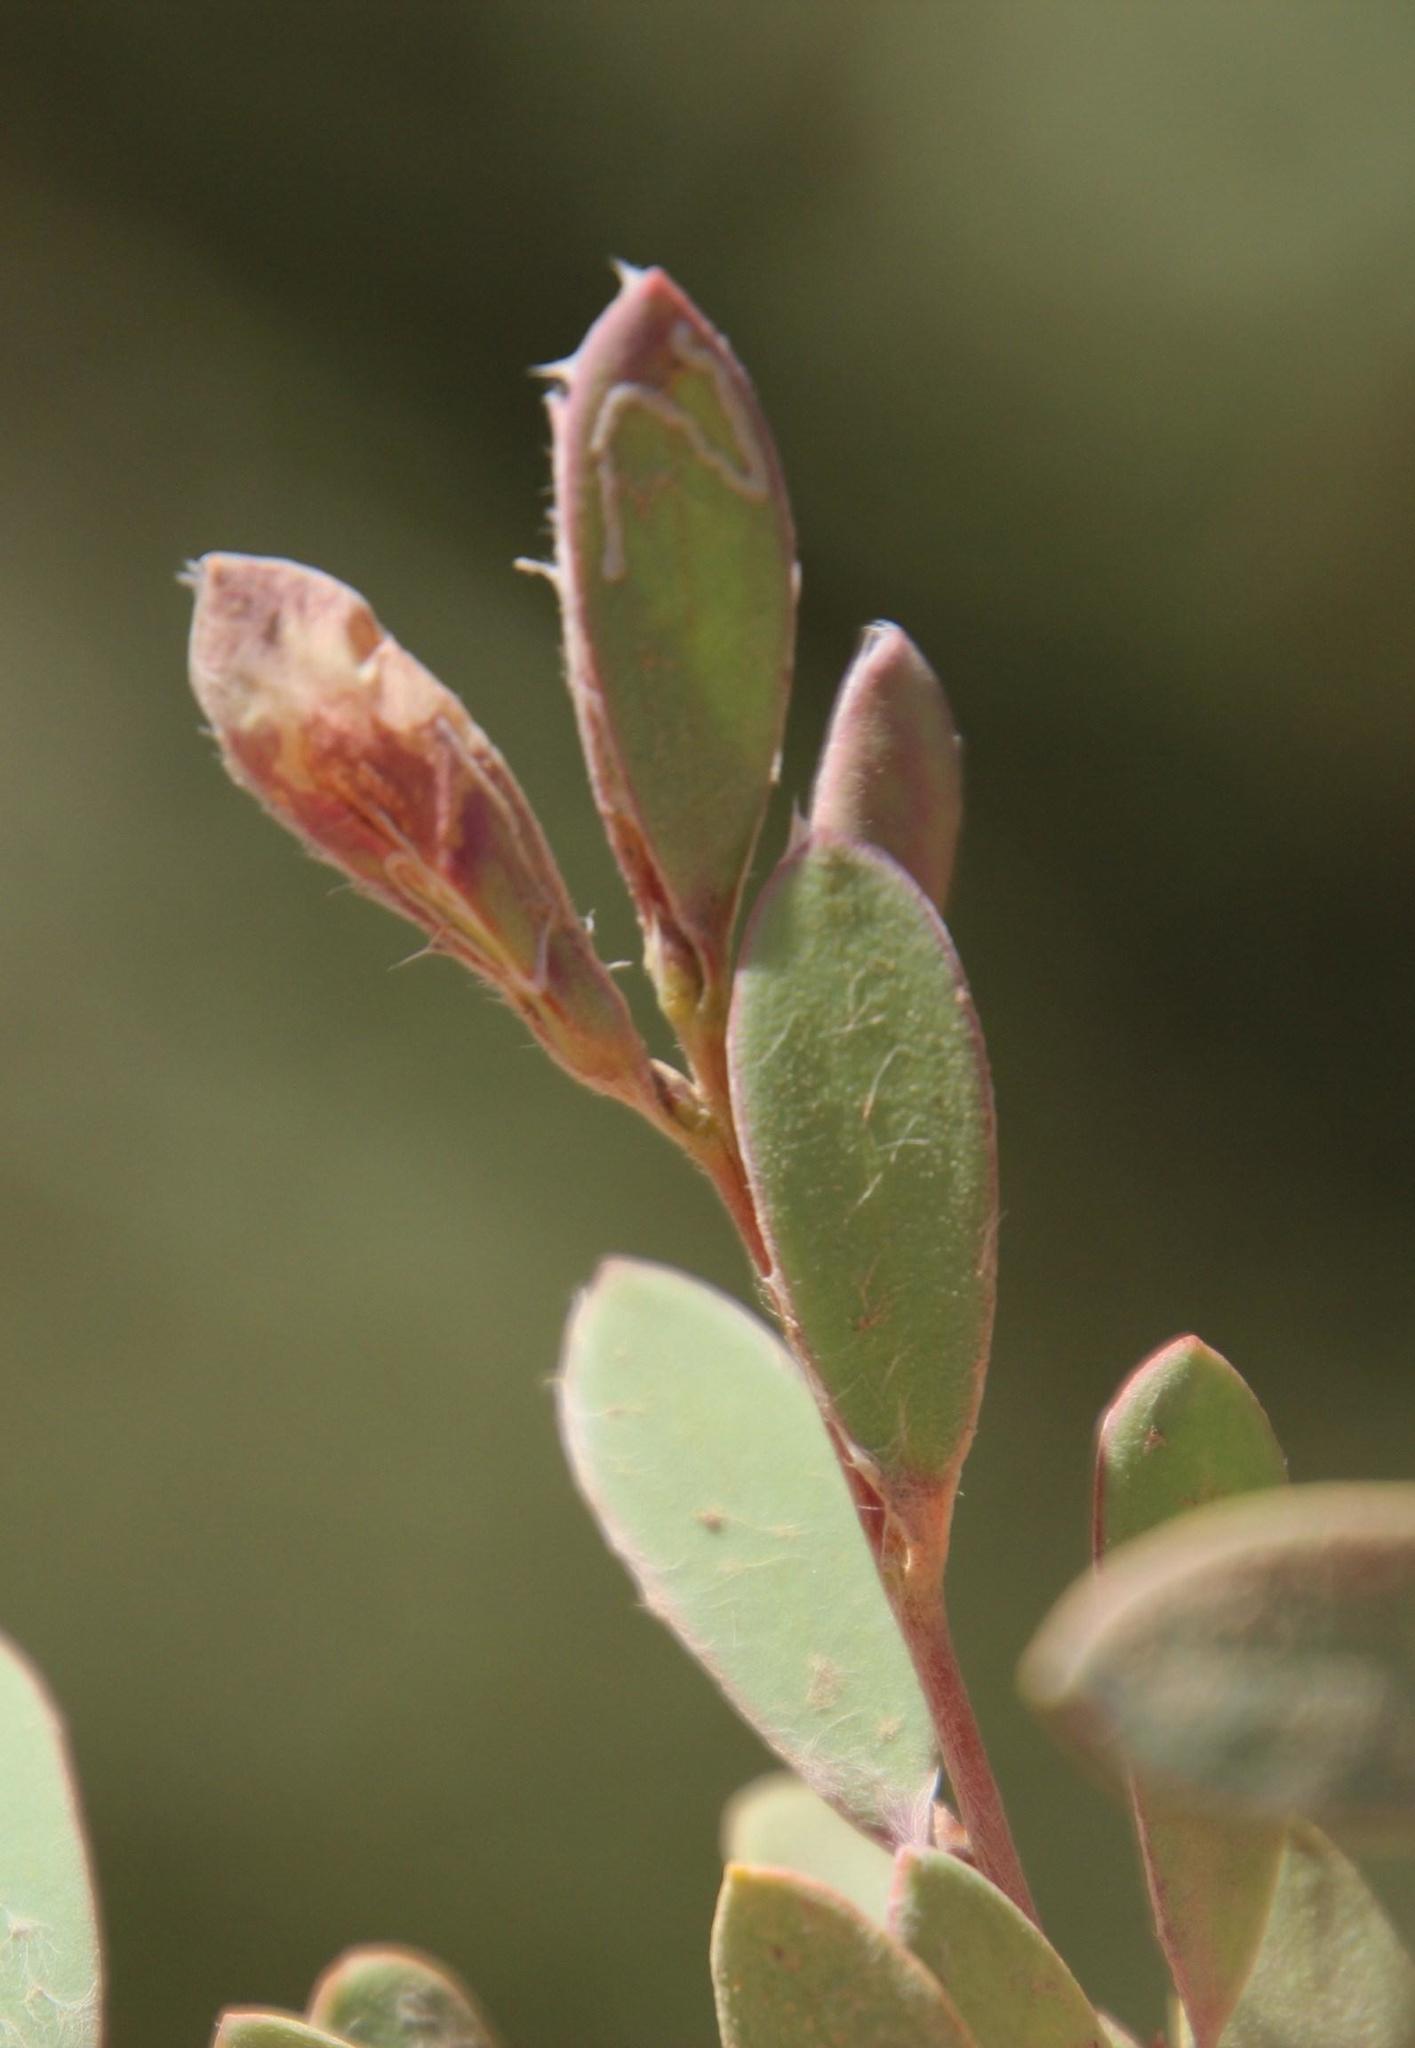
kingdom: Animalia
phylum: Arthropoda
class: Insecta
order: Lepidoptera
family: Gracillariidae
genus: Aristaea
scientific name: Aristaea thalassias
